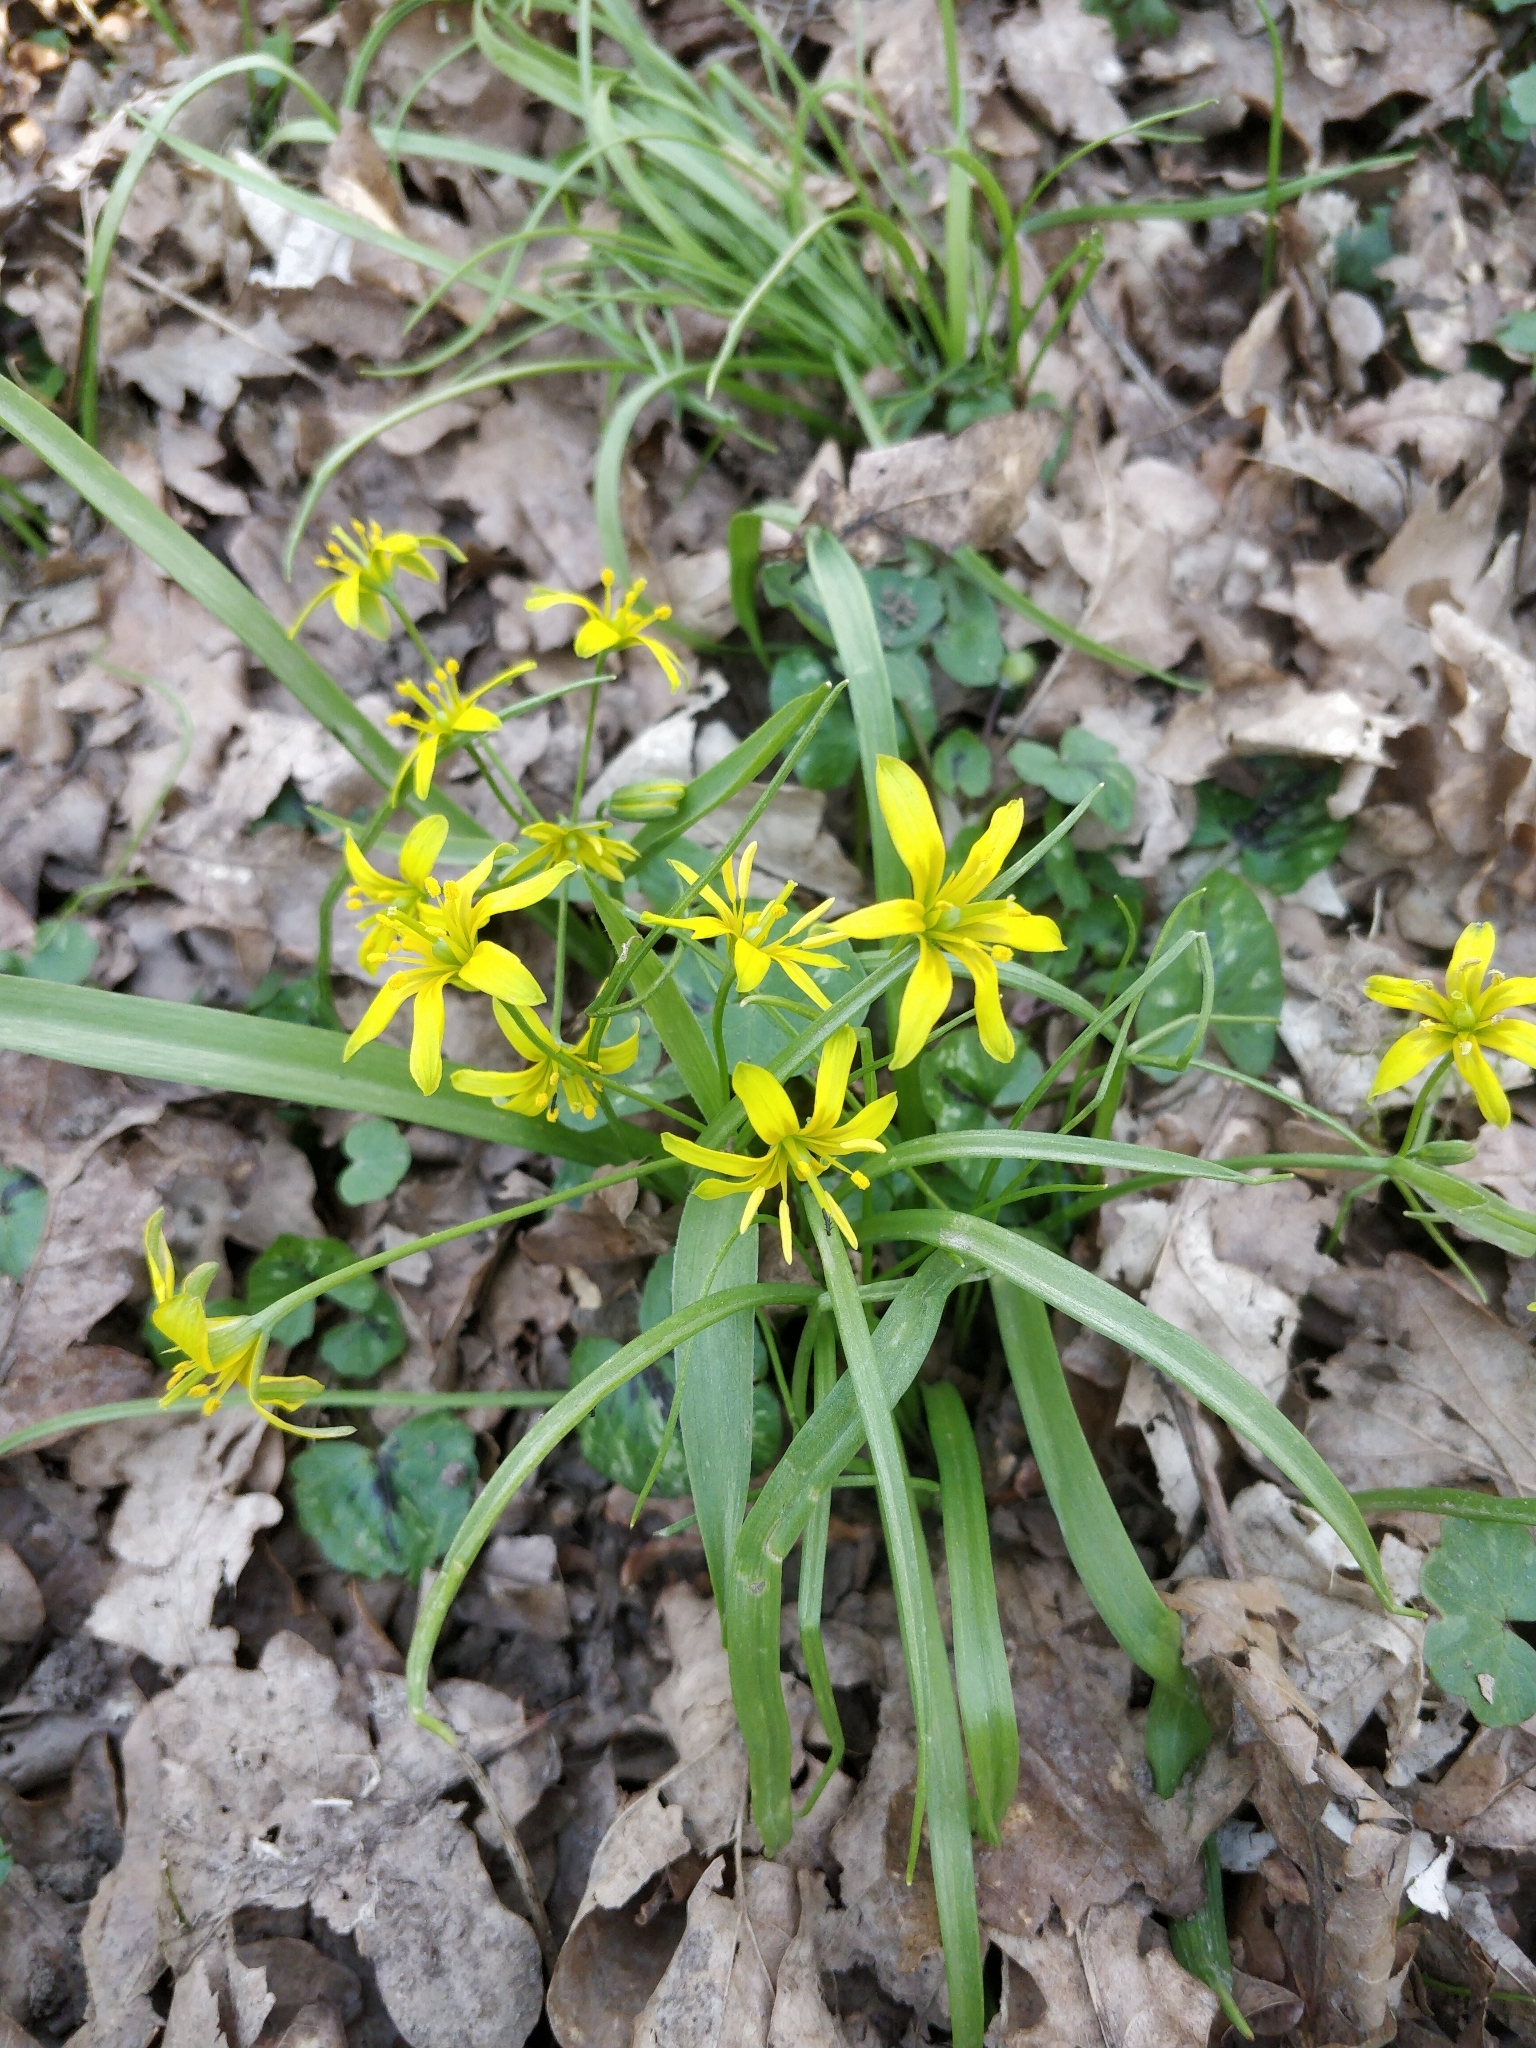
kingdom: Plantae
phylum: Tracheophyta
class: Liliopsida
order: Liliales
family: Liliaceae
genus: Gagea
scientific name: Gagea lutea
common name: Yellow star-of-bethlehem
